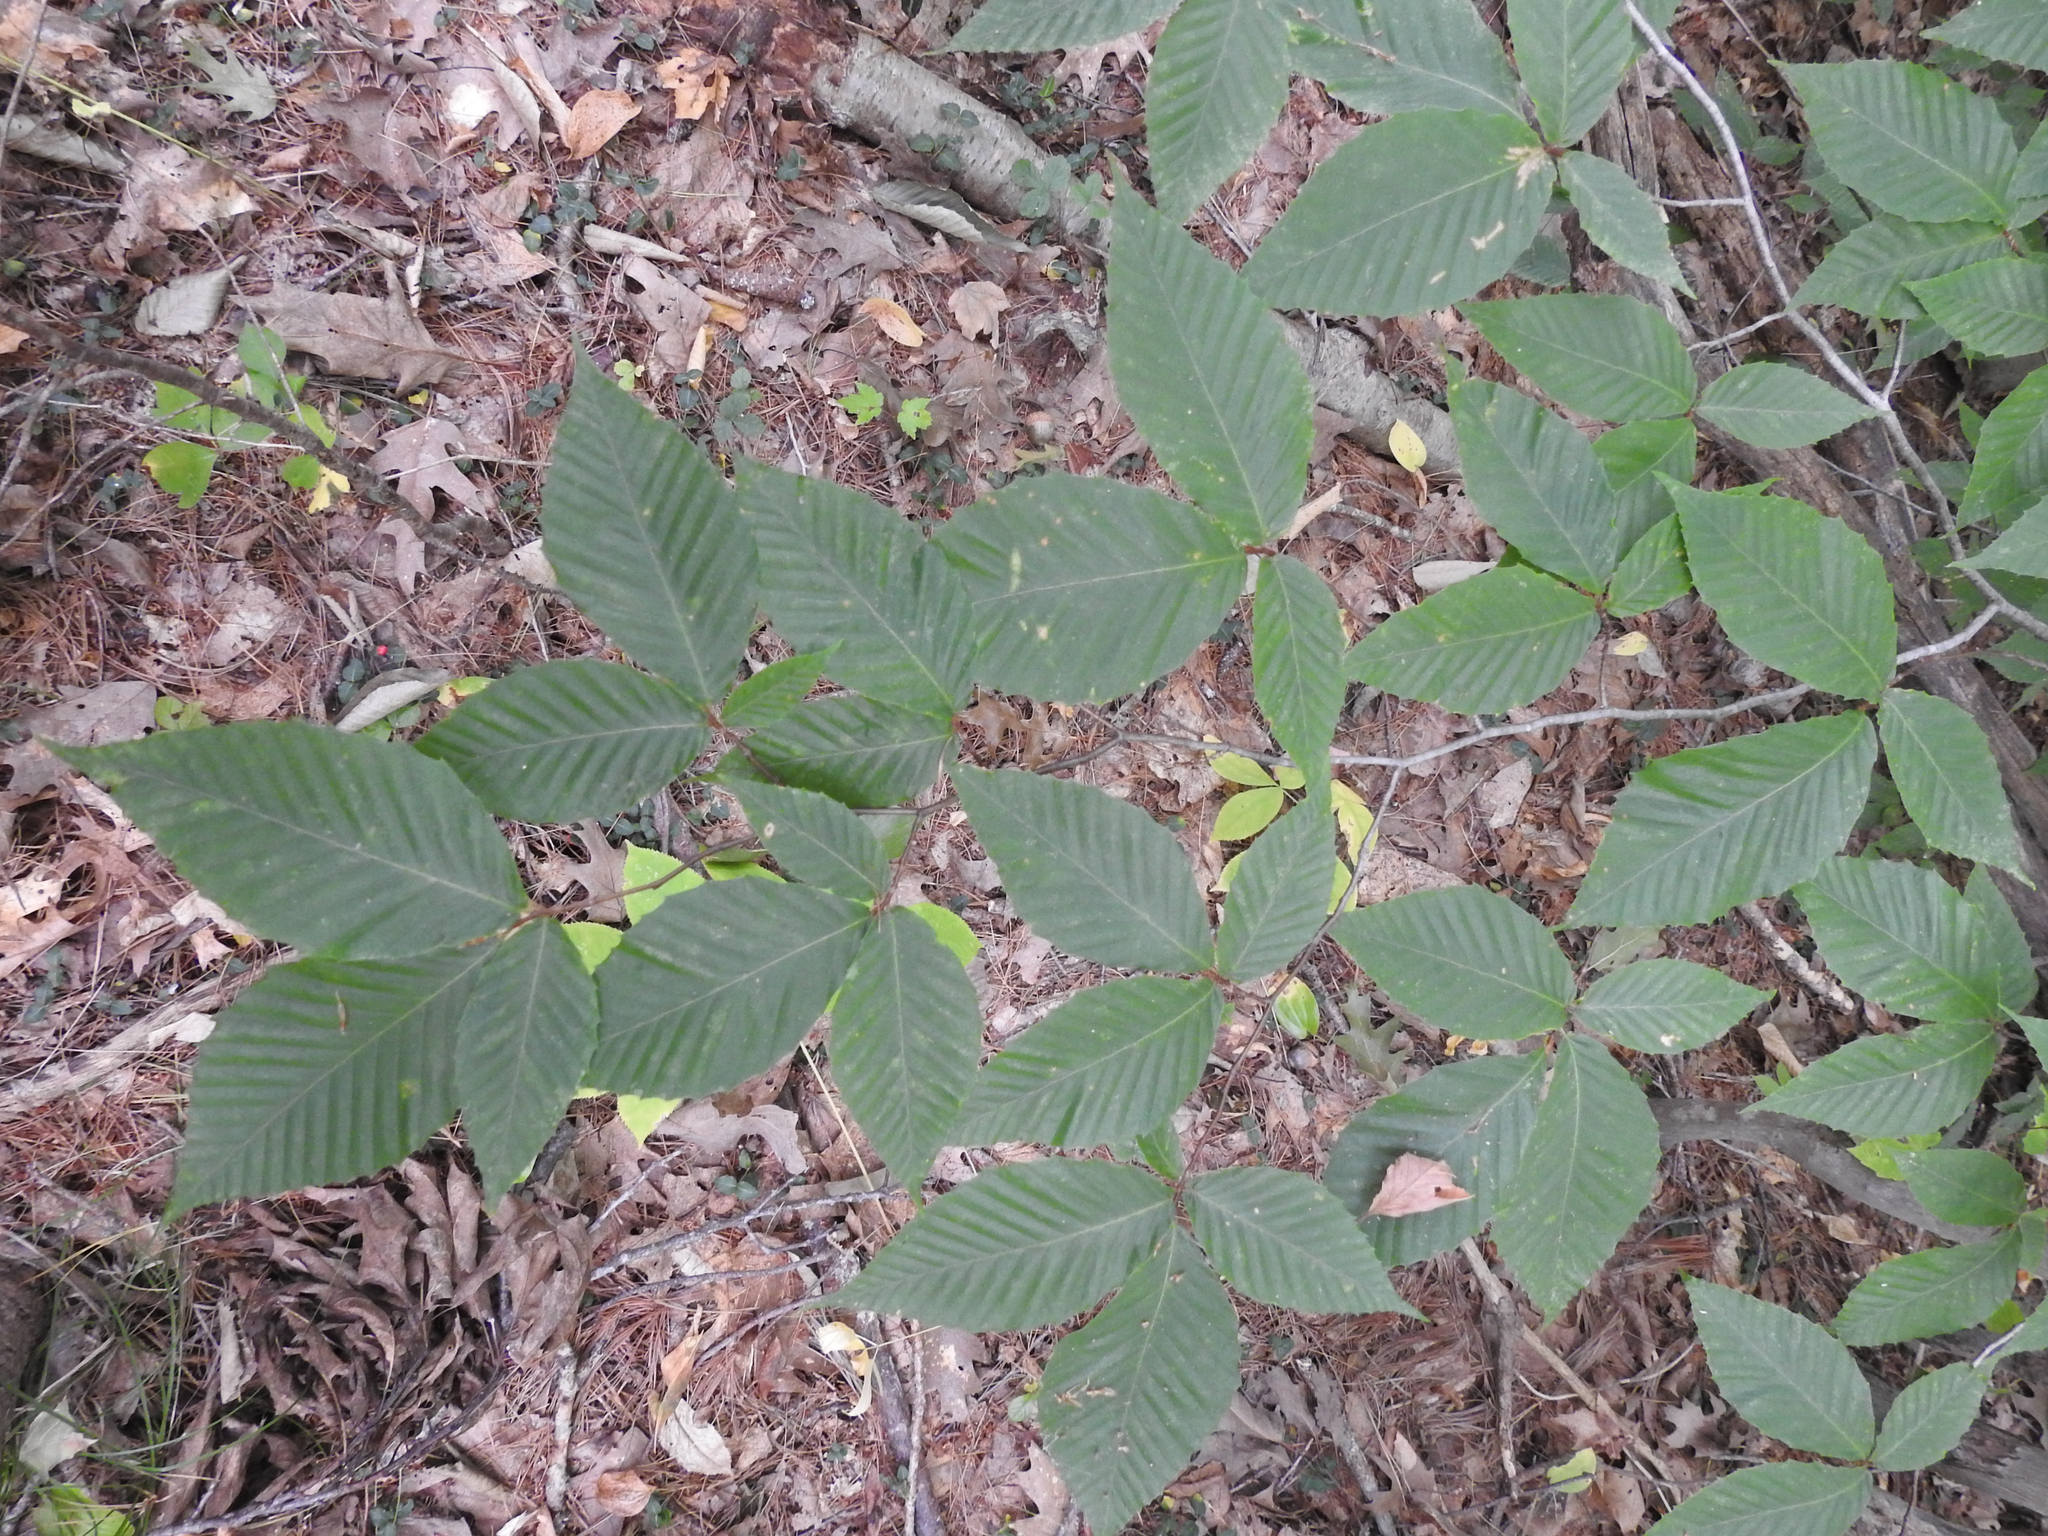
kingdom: Plantae
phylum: Tracheophyta
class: Magnoliopsida
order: Fagales
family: Fagaceae
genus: Fagus
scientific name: Fagus grandifolia
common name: American beech
